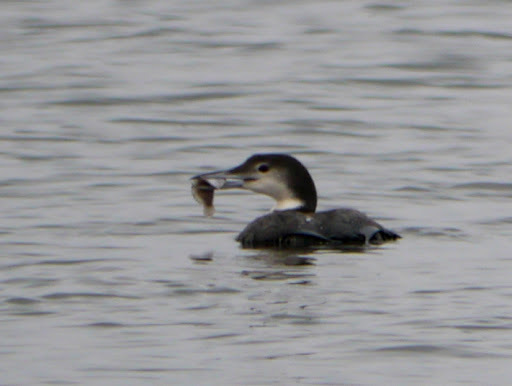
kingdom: Animalia
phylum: Chordata
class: Aves
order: Gaviiformes
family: Gaviidae
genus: Gavia
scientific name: Gavia immer
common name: Common loon
